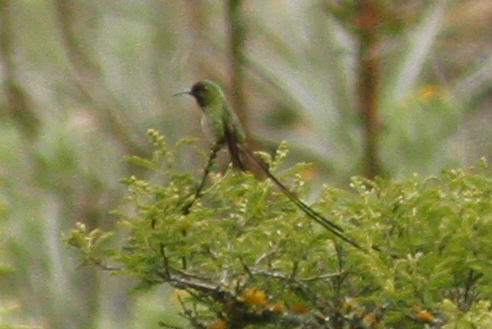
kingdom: Animalia
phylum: Chordata
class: Aves
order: Apodiformes
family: Trochilidae
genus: Lesbia
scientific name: Lesbia victoriae
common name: Black-tailed trainbearer
